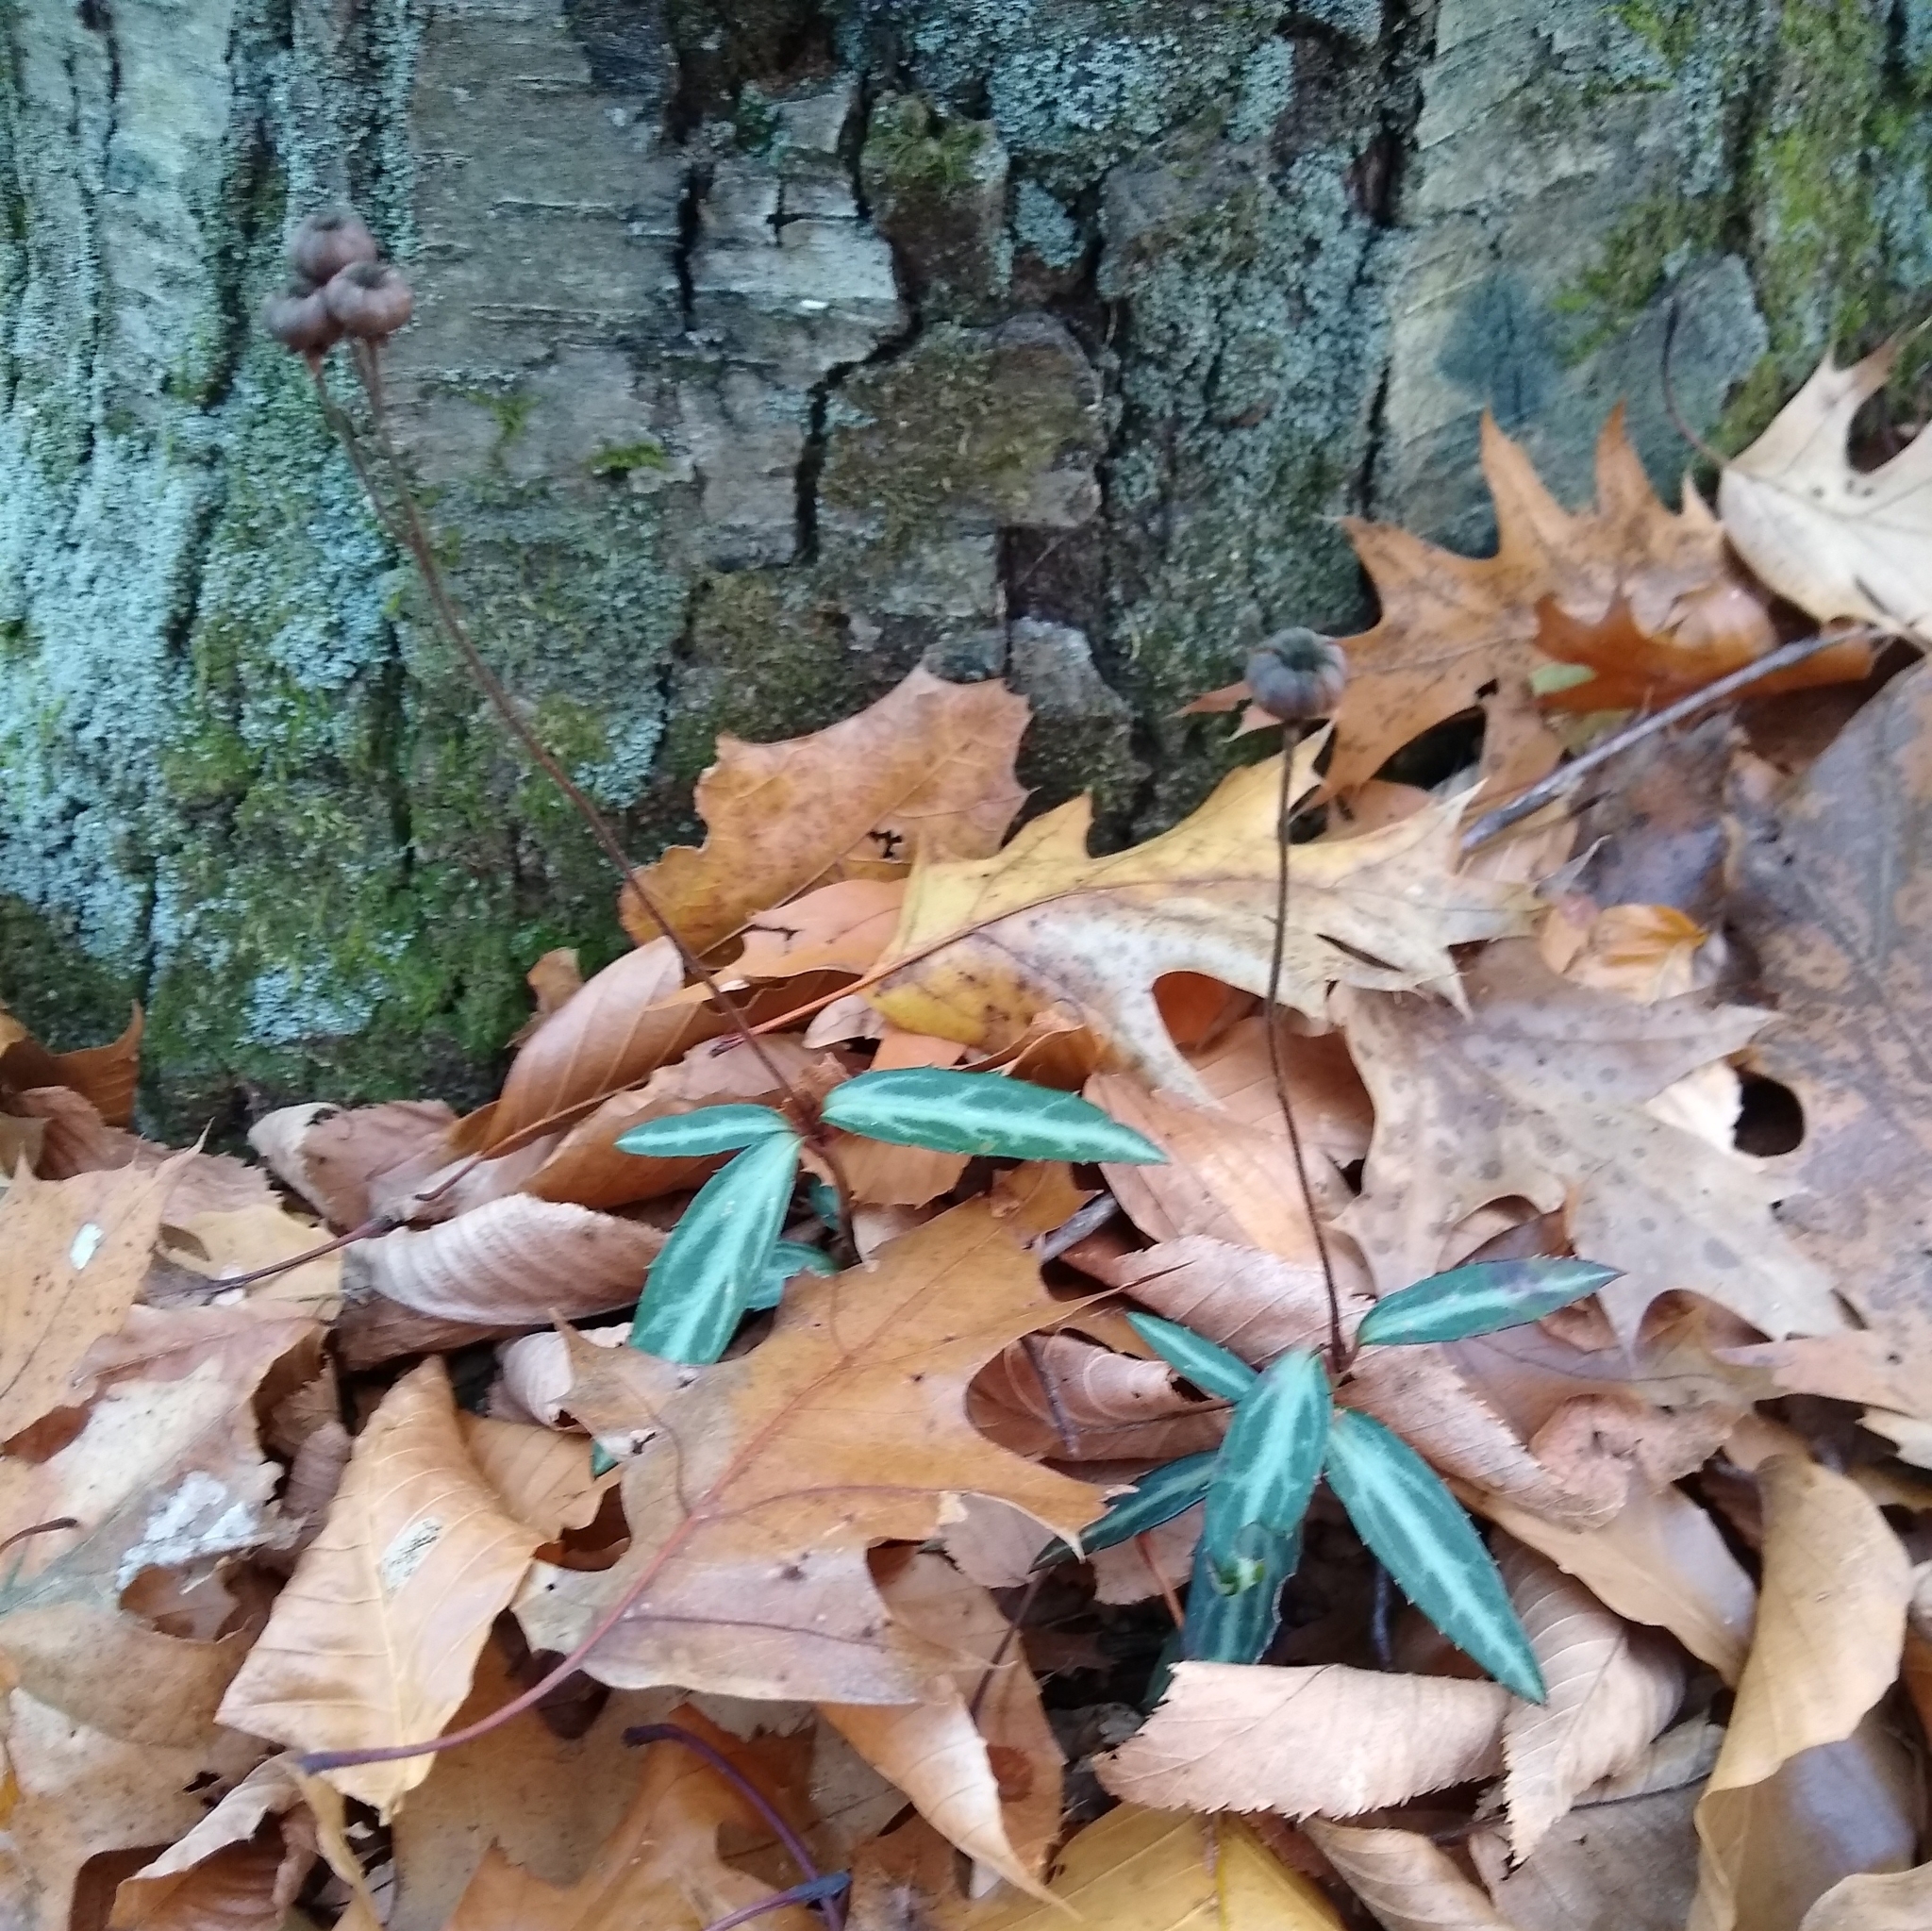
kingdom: Plantae
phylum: Tracheophyta
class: Magnoliopsida
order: Ericales
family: Ericaceae
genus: Chimaphila
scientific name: Chimaphila maculata
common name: Spotted pipsissewa
